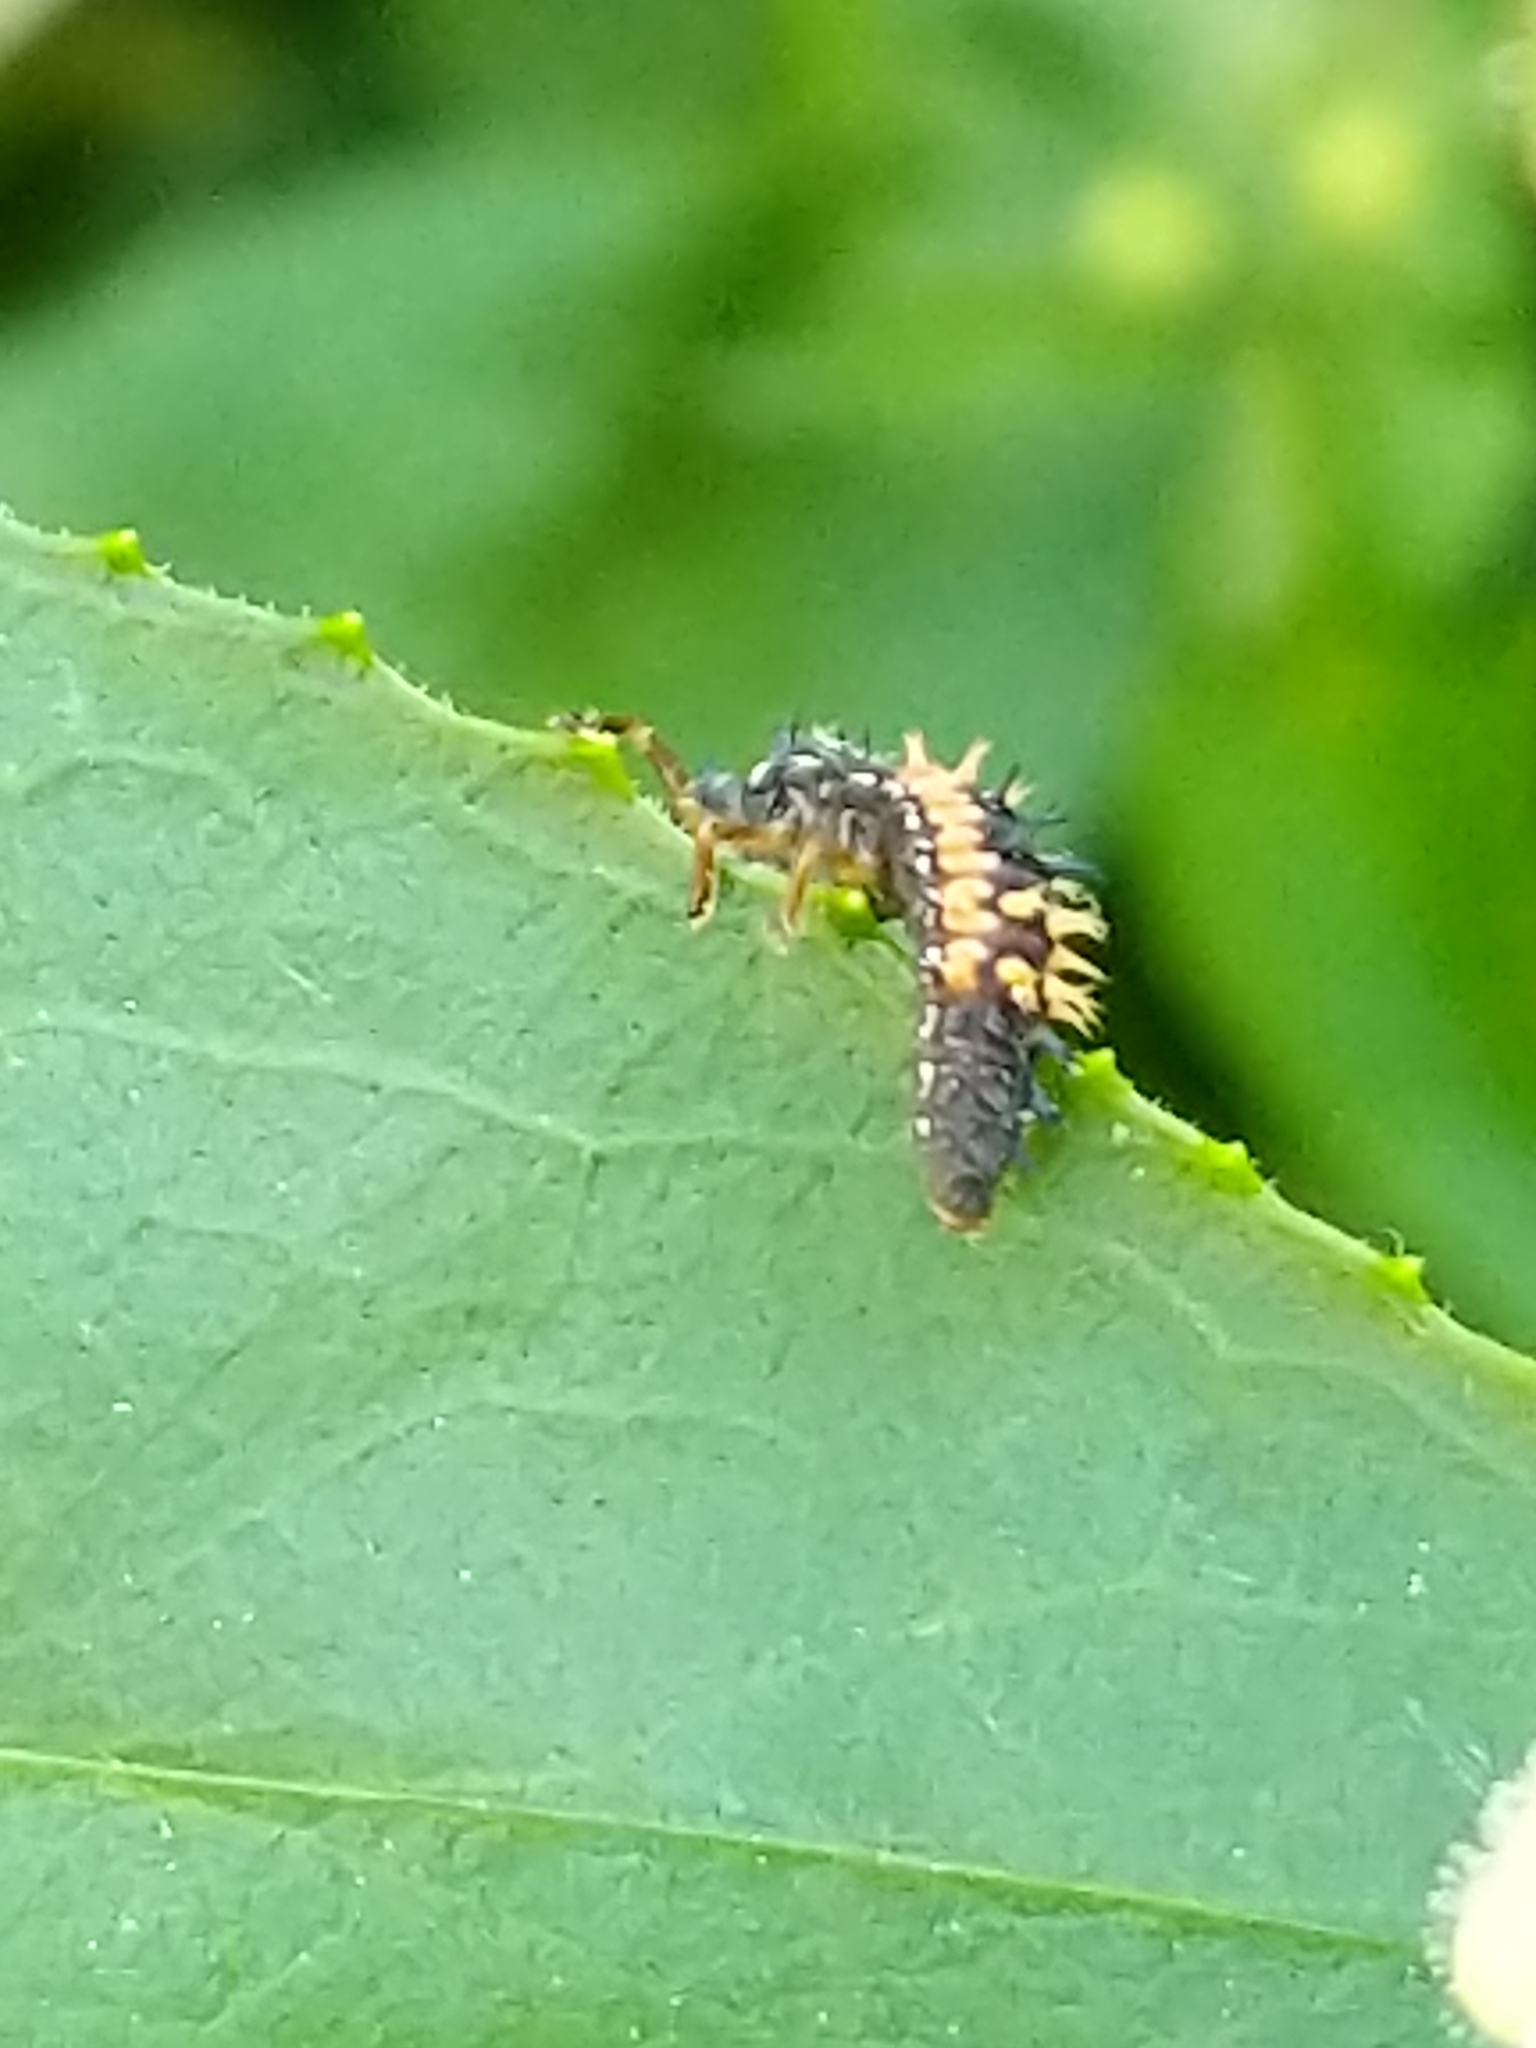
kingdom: Animalia
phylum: Arthropoda
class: Insecta
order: Coleoptera
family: Coccinellidae
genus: Harmonia
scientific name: Harmonia axyridis
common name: Harlequin ladybird
